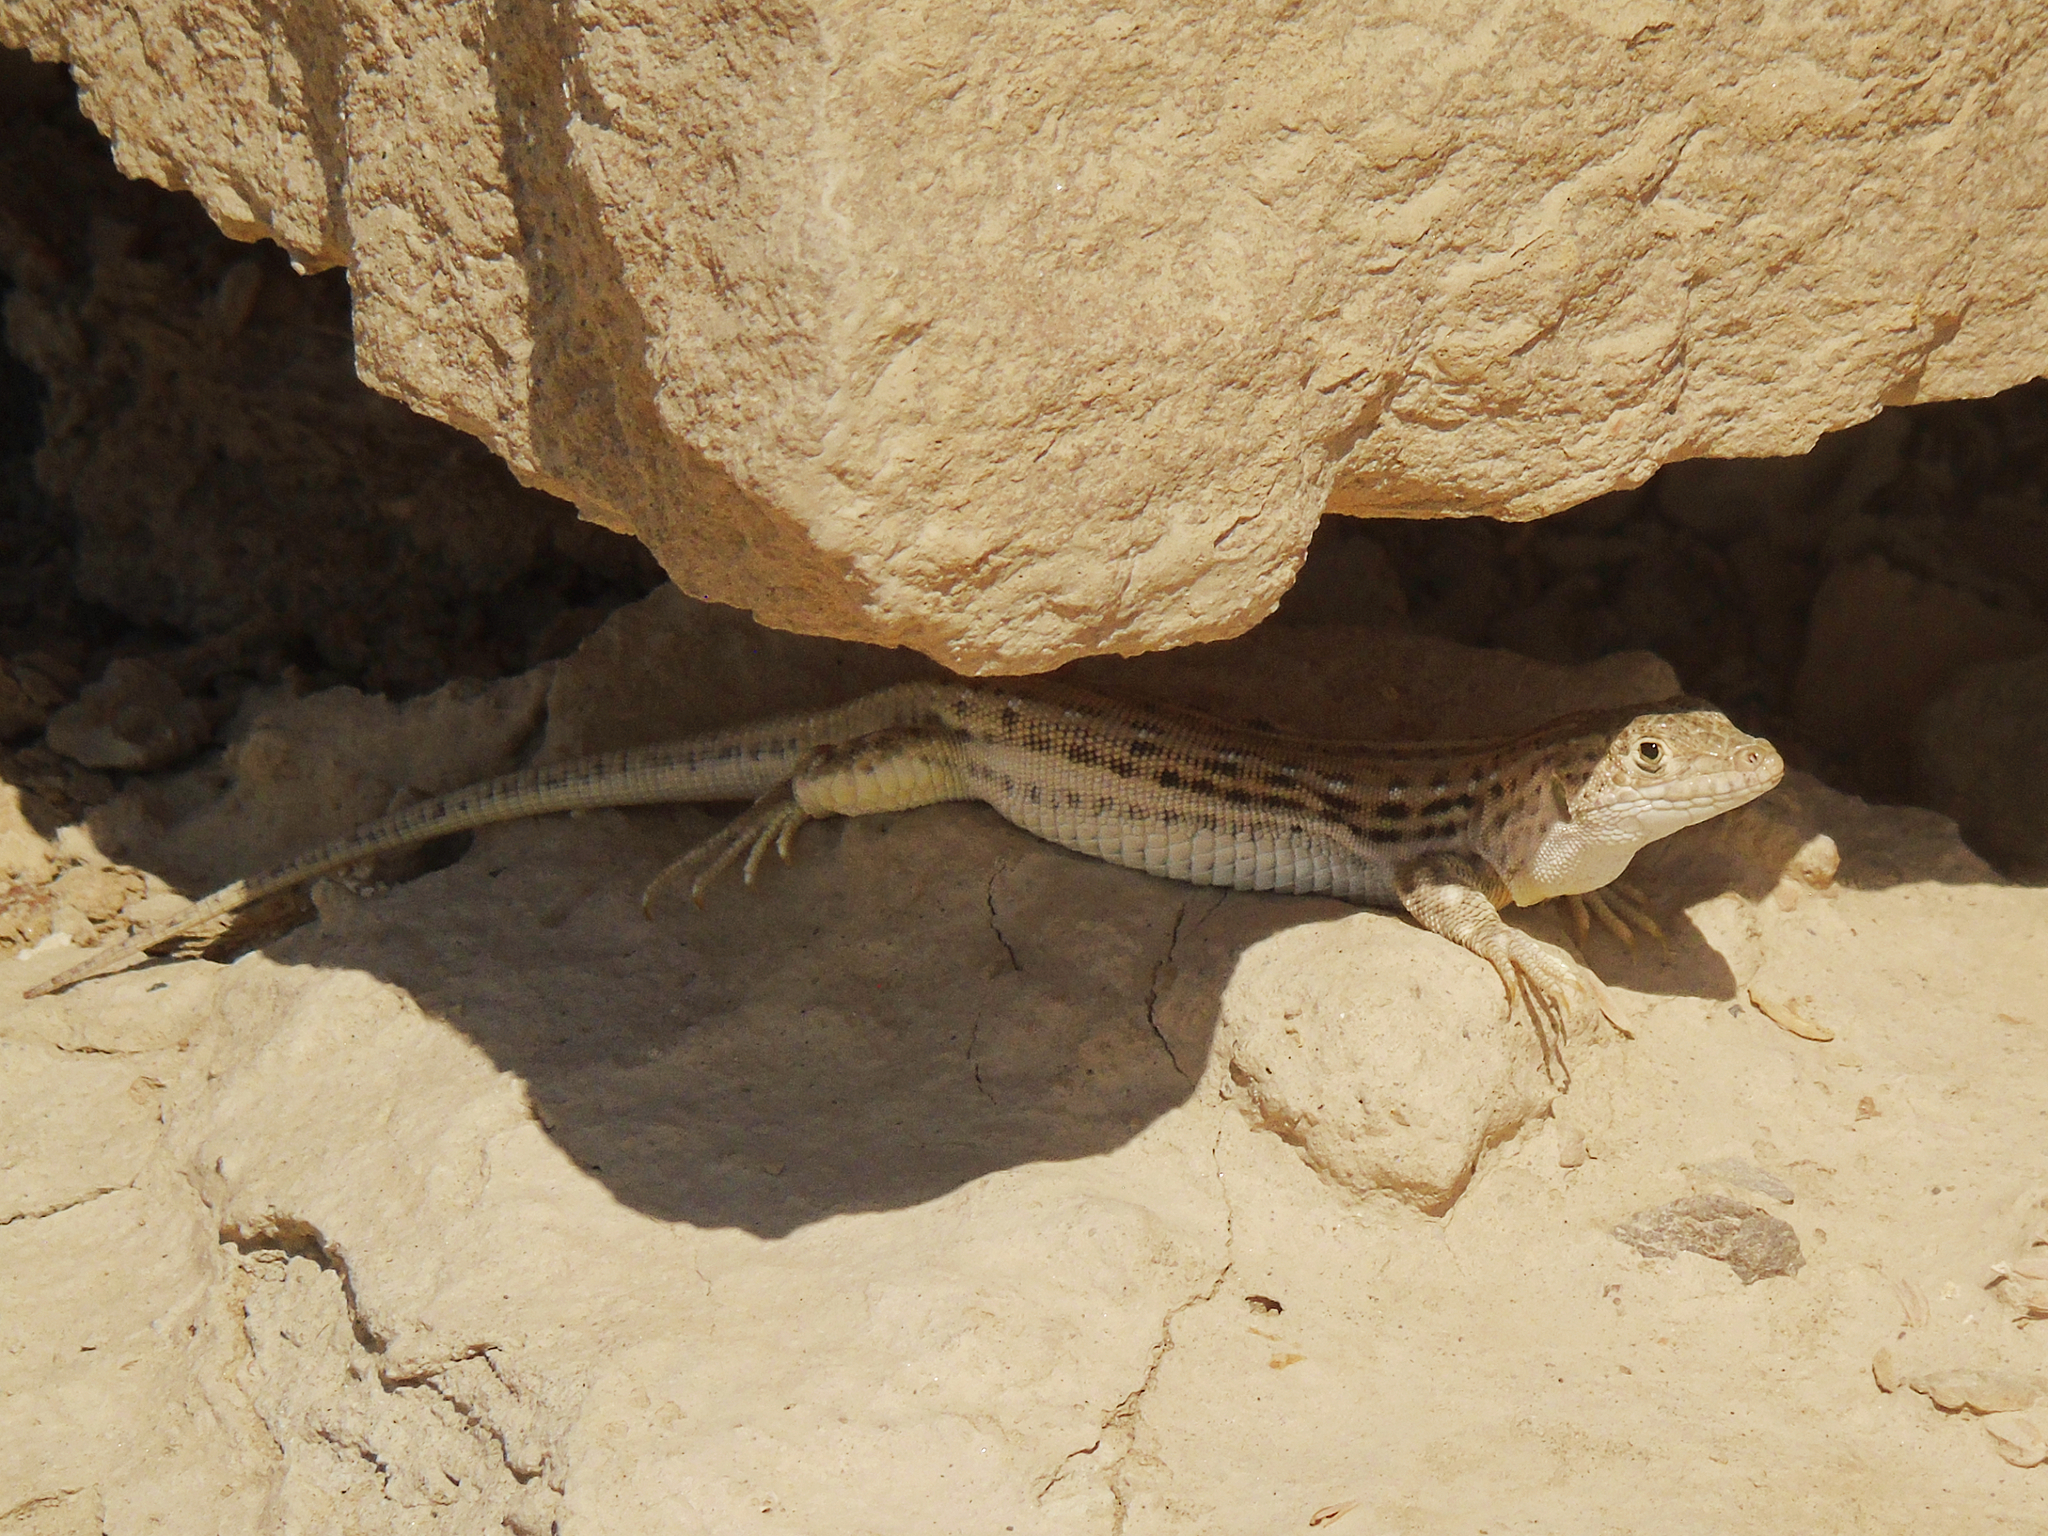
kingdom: Animalia
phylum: Chordata
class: Squamata
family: Lacertidae
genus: Eremias
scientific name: Eremias velox
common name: Central asian racerunner
